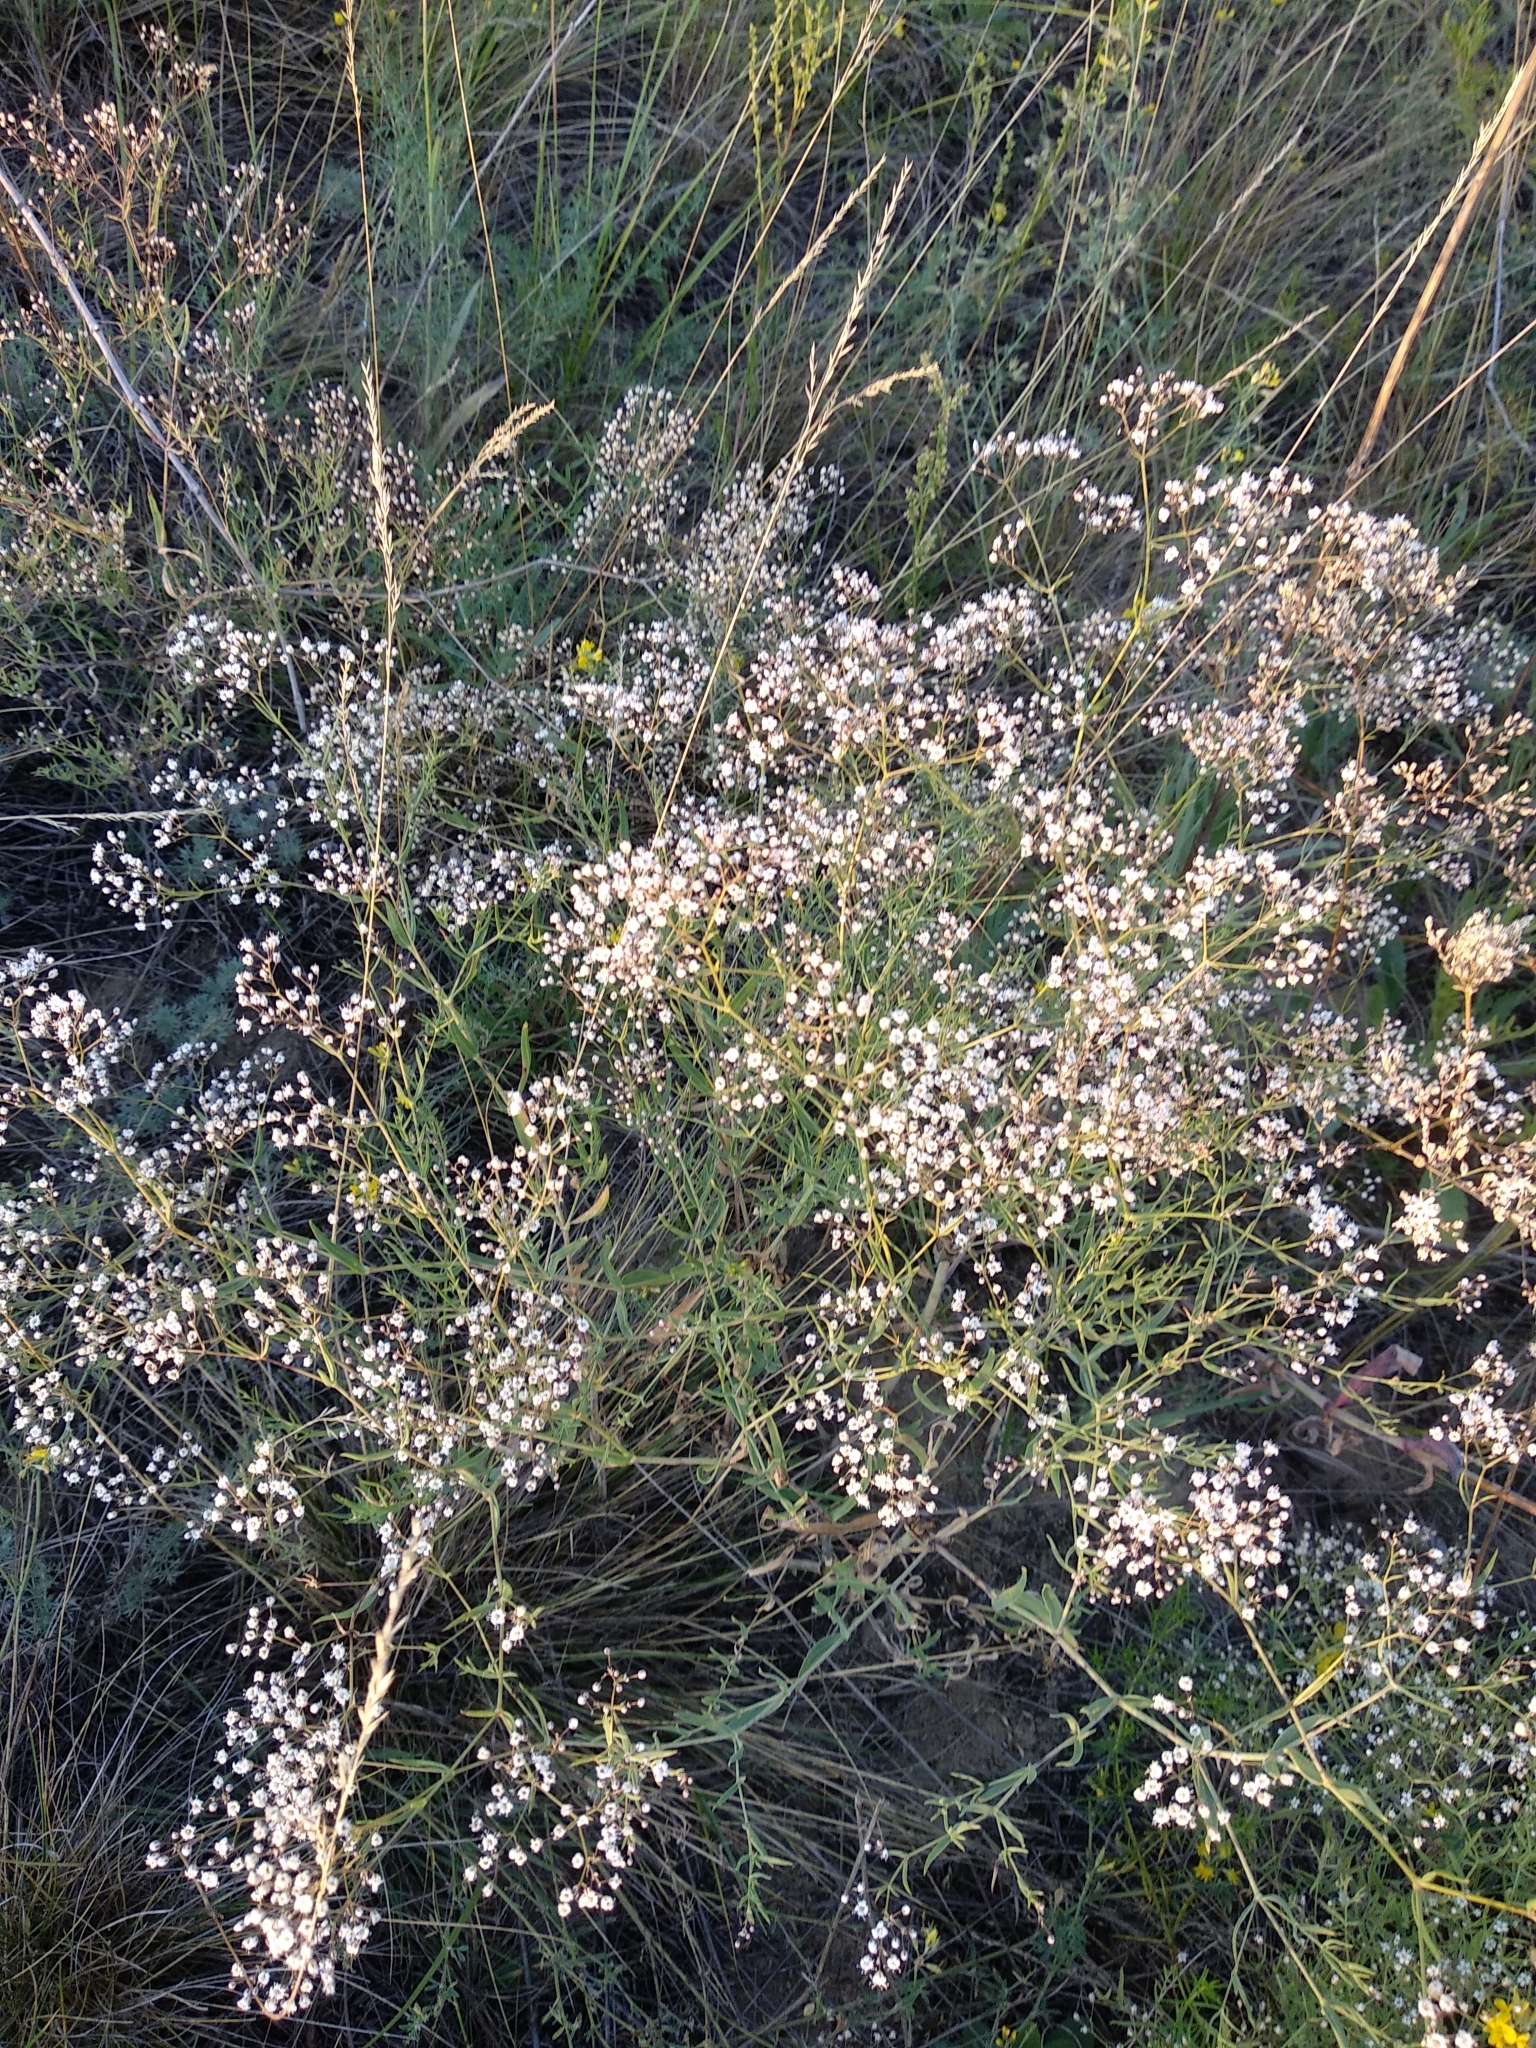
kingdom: Plantae
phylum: Tracheophyta
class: Magnoliopsida
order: Caryophyllales
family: Caryophyllaceae
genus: Gypsophila
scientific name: Gypsophila paniculata
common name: Baby's-breath
